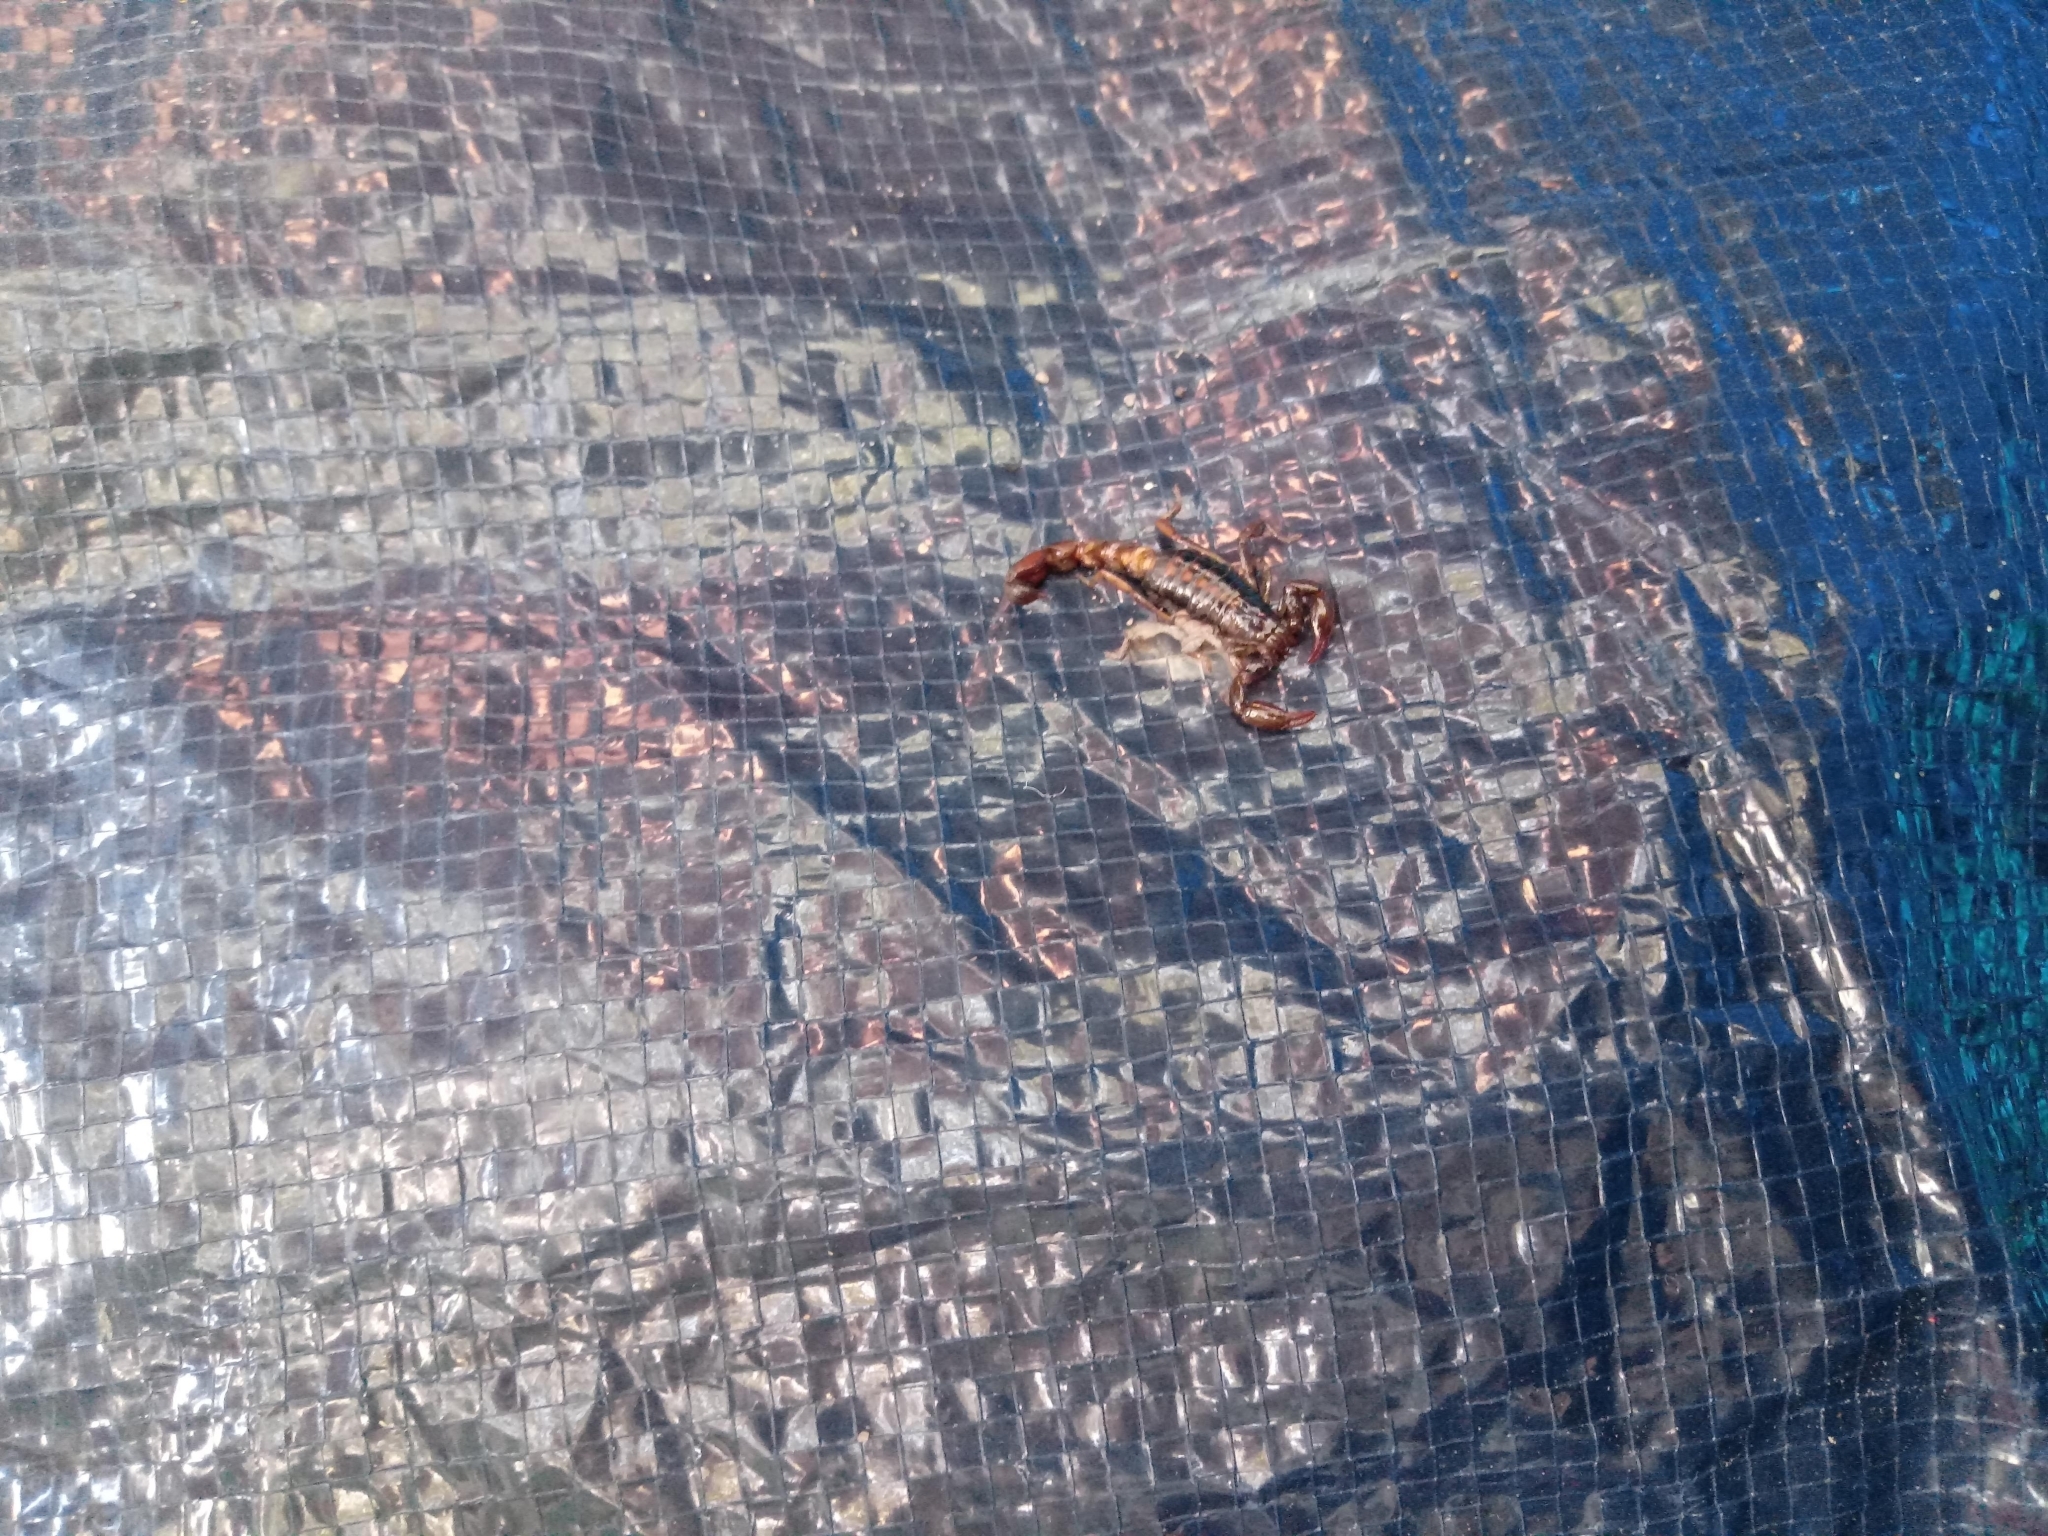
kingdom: Animalia
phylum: Arthropoda
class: Arachnida
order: Scorpiones
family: Bothriuridae
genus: Bothriurus
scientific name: Bothriurus asper
